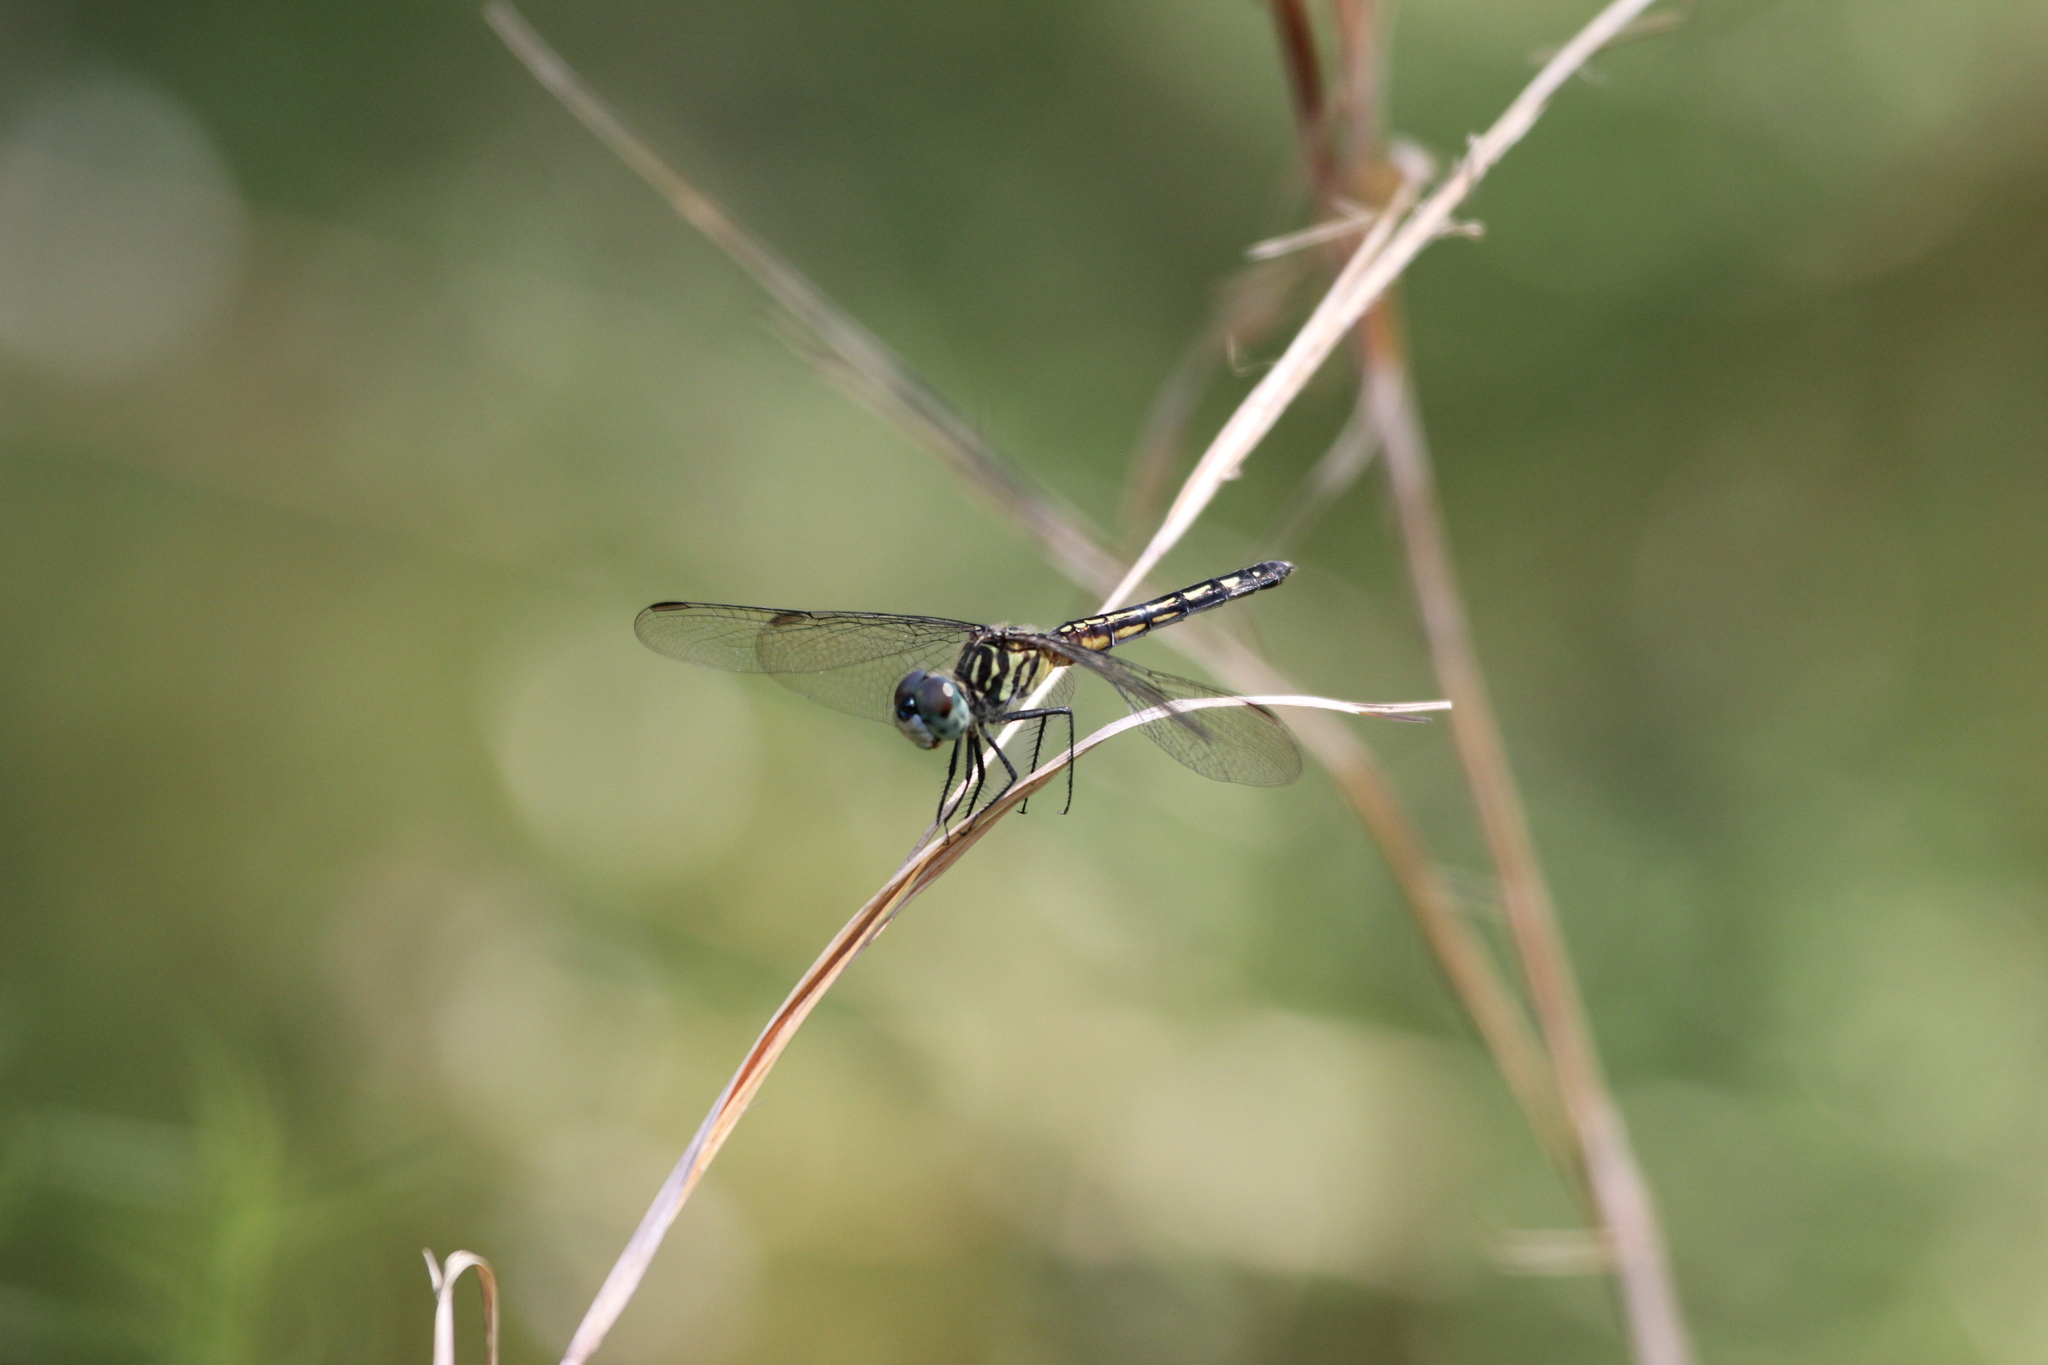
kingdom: Animalia
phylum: Arthropoda
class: Insecta
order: Odonata
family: Libellulidae
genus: Pachydiplax
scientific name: Pachydiplax longipennis
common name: Blue dasher
